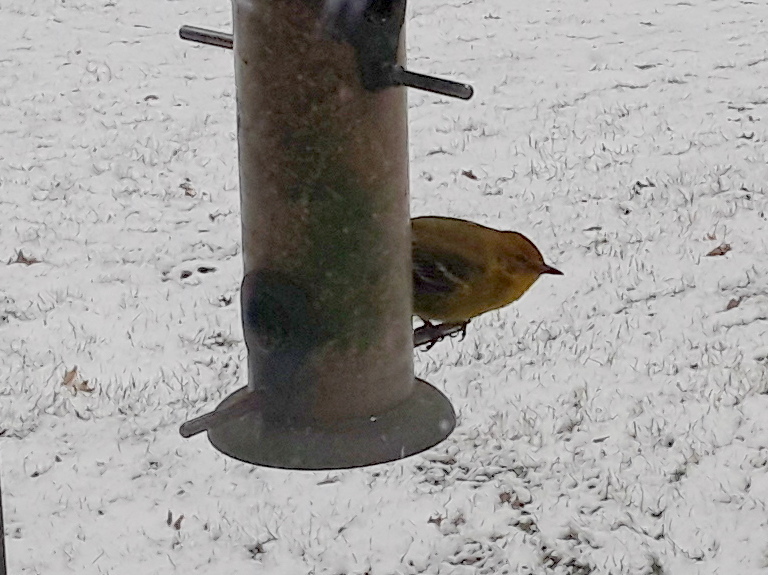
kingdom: Animalia
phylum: Chordata
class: Aves
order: Passeriformes
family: Parulidae
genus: Setophaga
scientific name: Setophaga pinus
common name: Pine warbler
